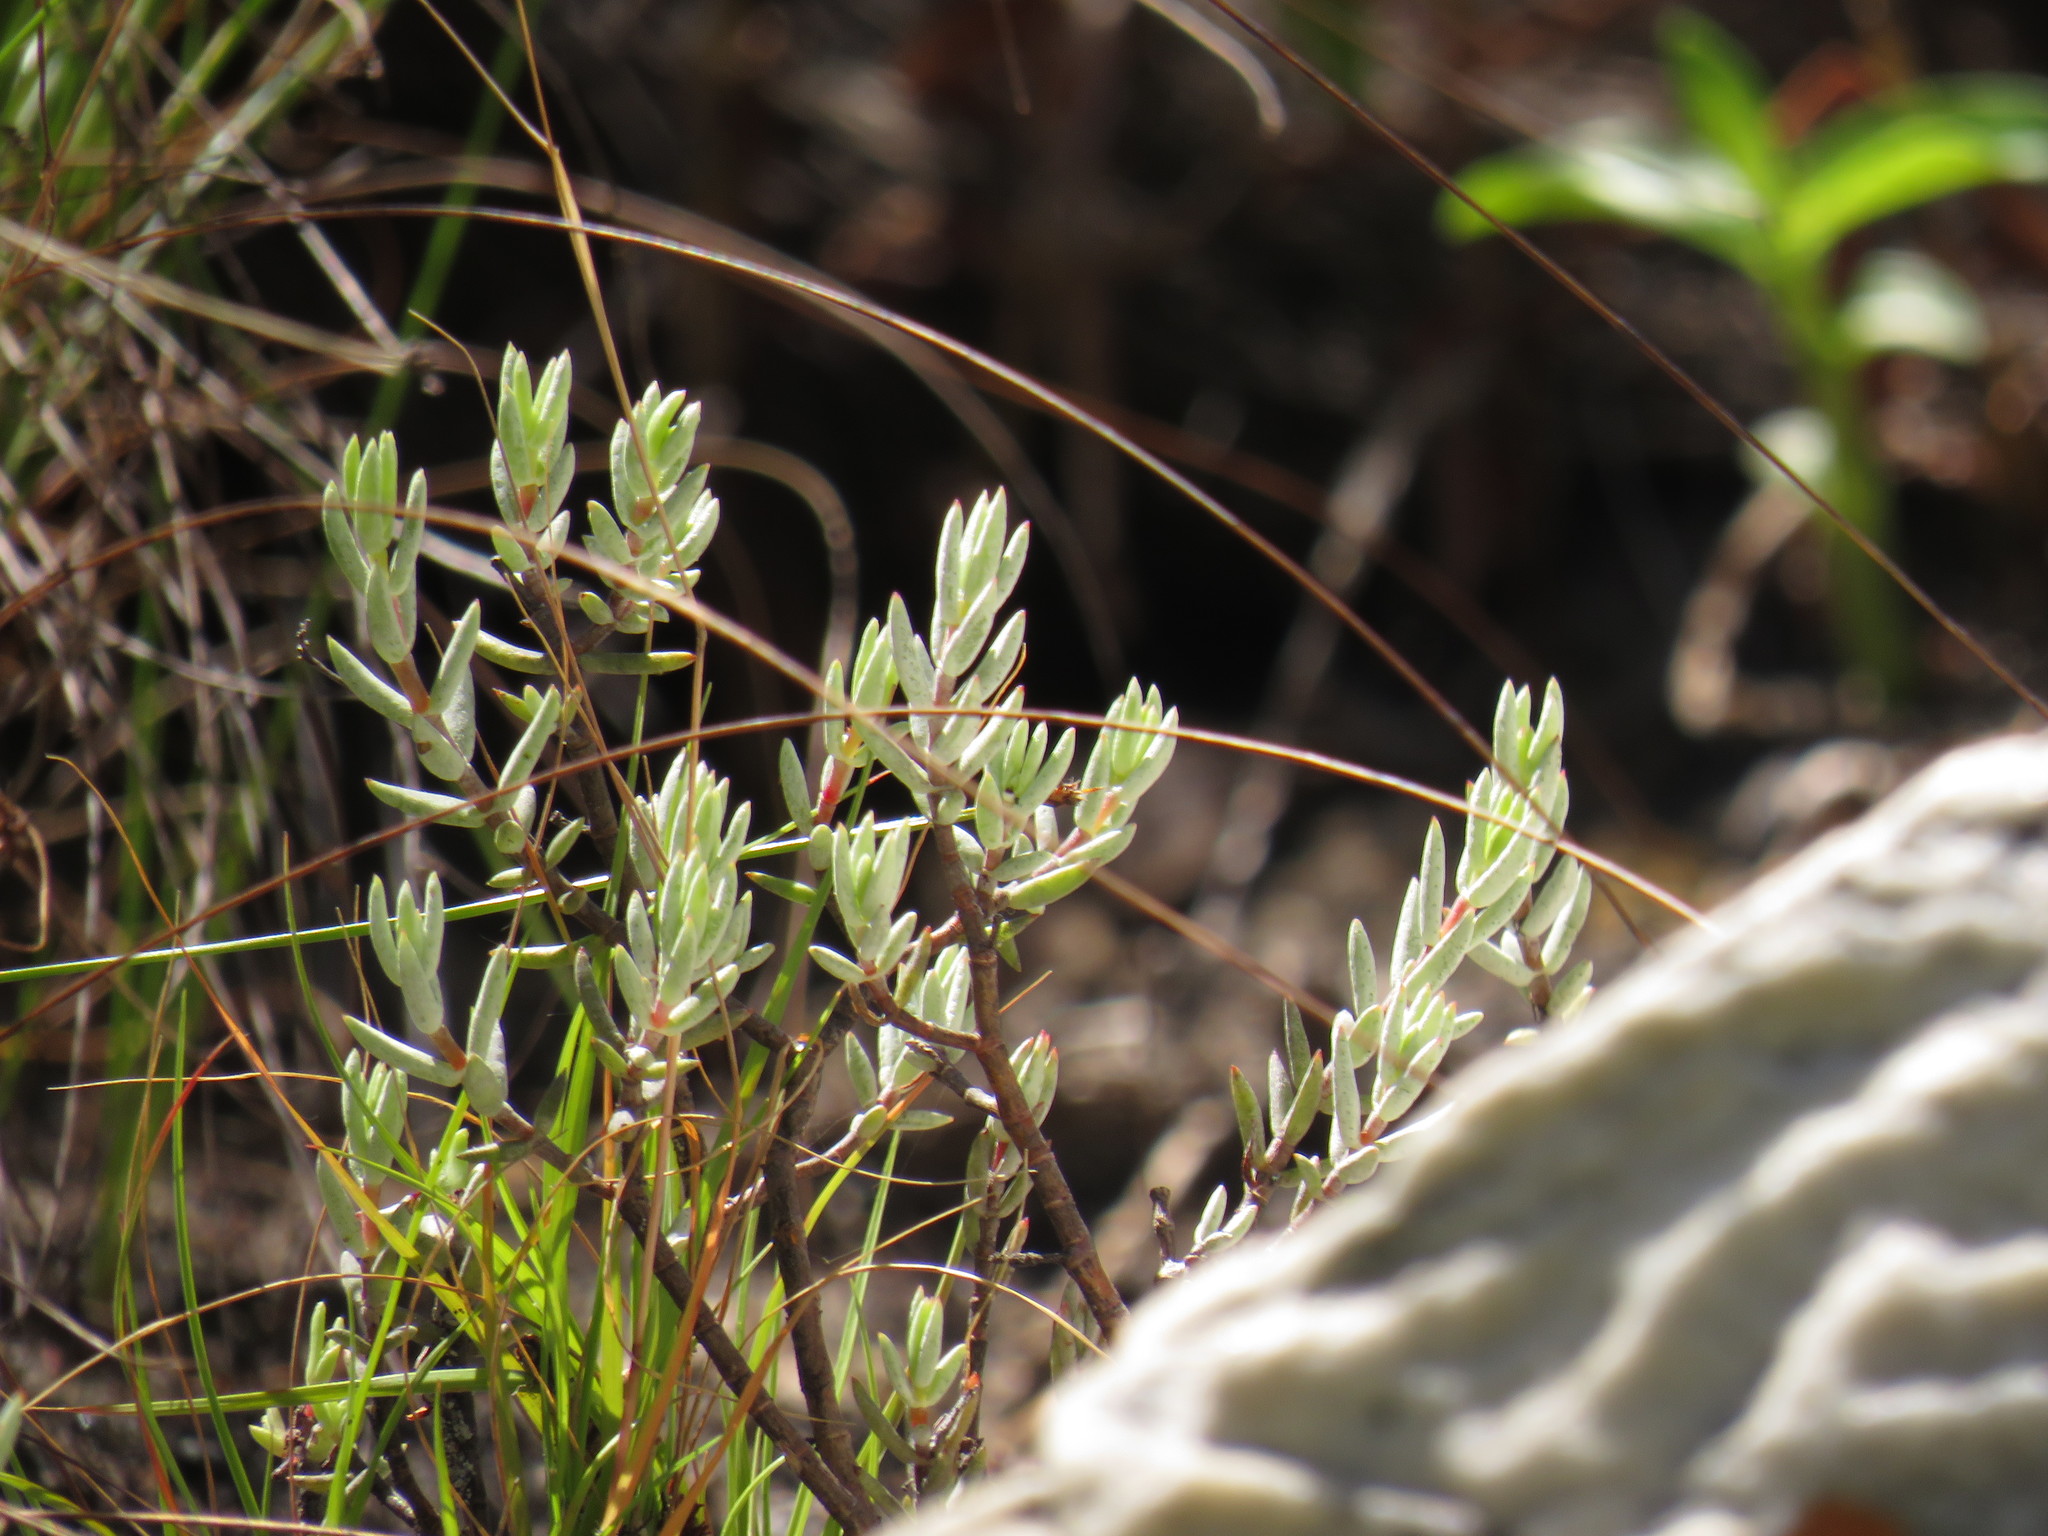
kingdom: Plantae
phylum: Tracheophyta
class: Magnoliopsida
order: Saxifragales
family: Crassulaceae
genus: Crassula
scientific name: Crassula biplanata
